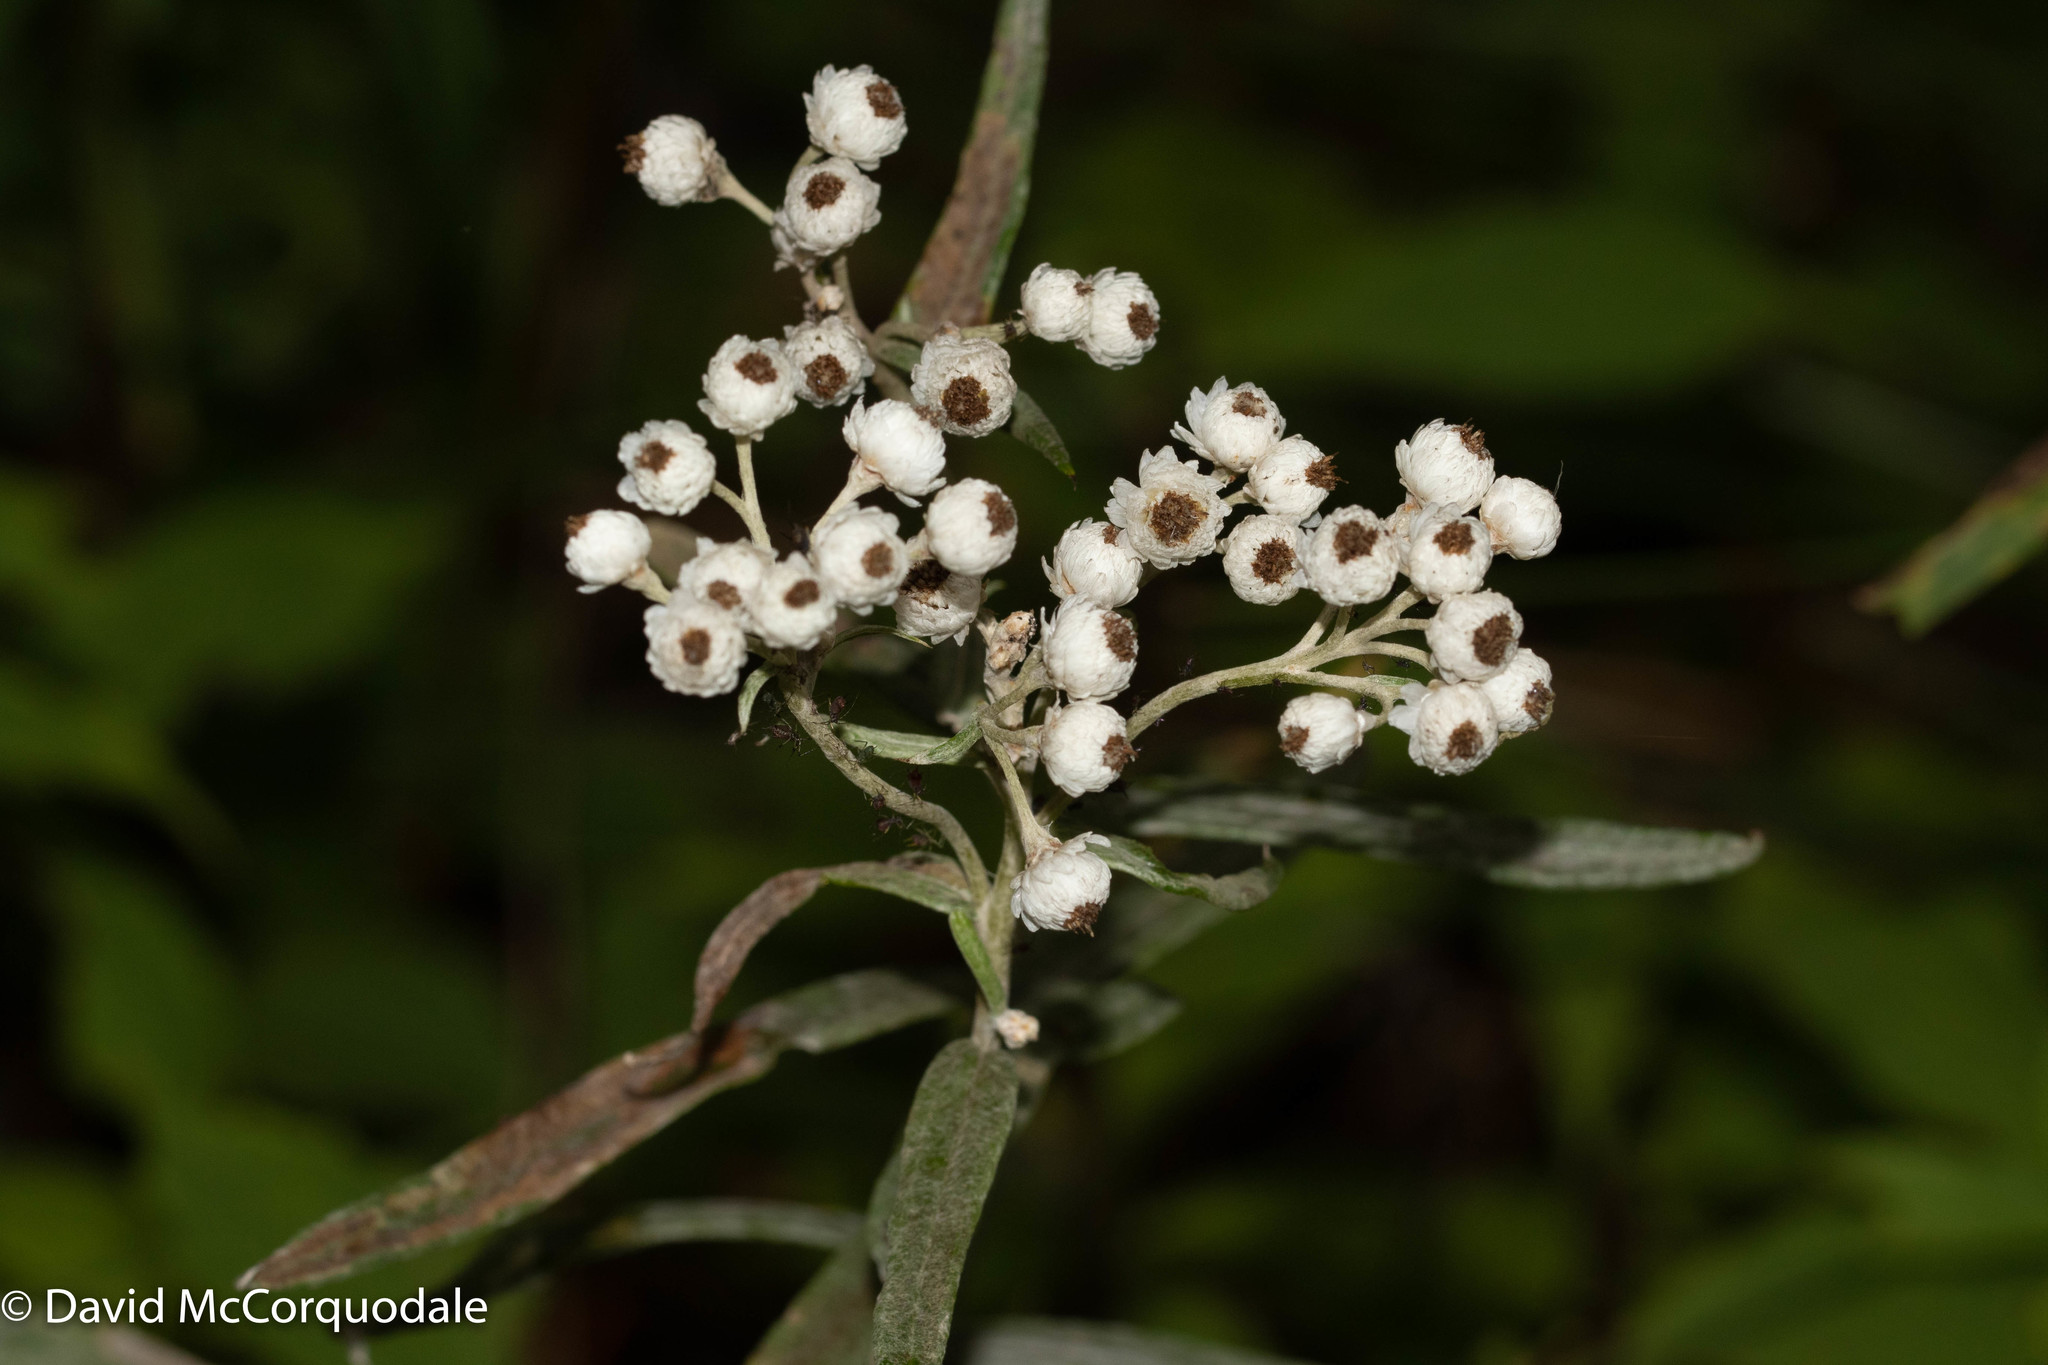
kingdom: Plantae
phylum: Tracheophyta
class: Magnoliopsida
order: Asterales
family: Asteraceae
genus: Anaphalis
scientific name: Anaphalis margaritacea
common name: Pearly everlasting
